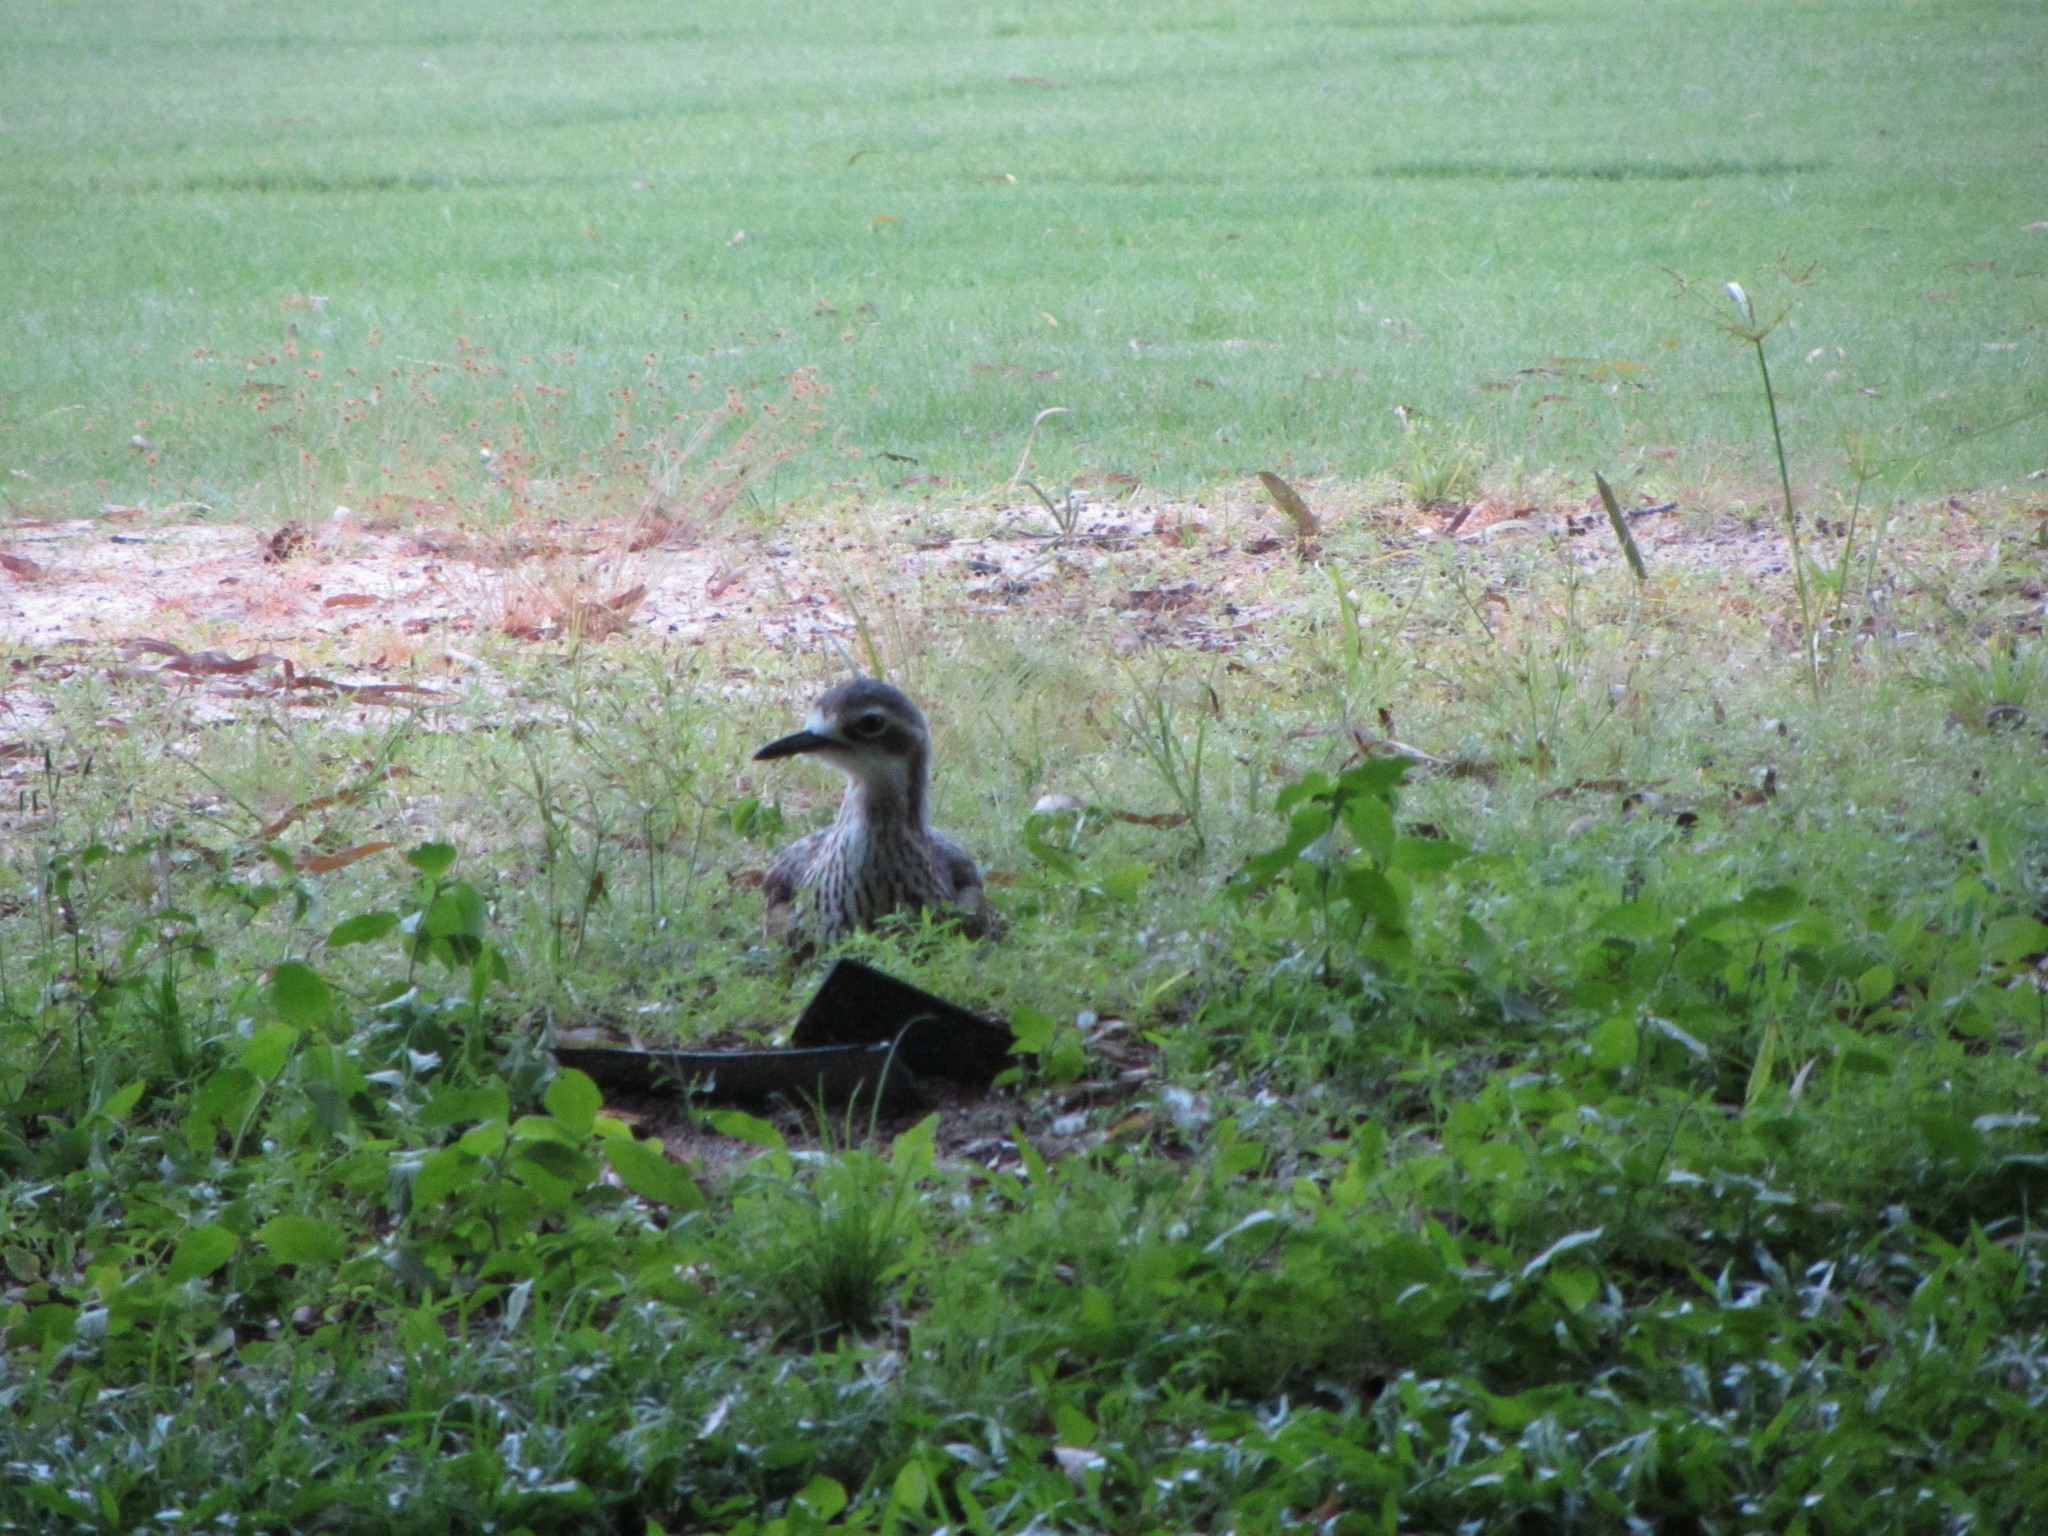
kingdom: Animalia
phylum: Chordata
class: Aves
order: Charadriiformes
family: Burhinidae
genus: Burhinus
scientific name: Burhinus grallarius
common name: Bush stone-curlew
